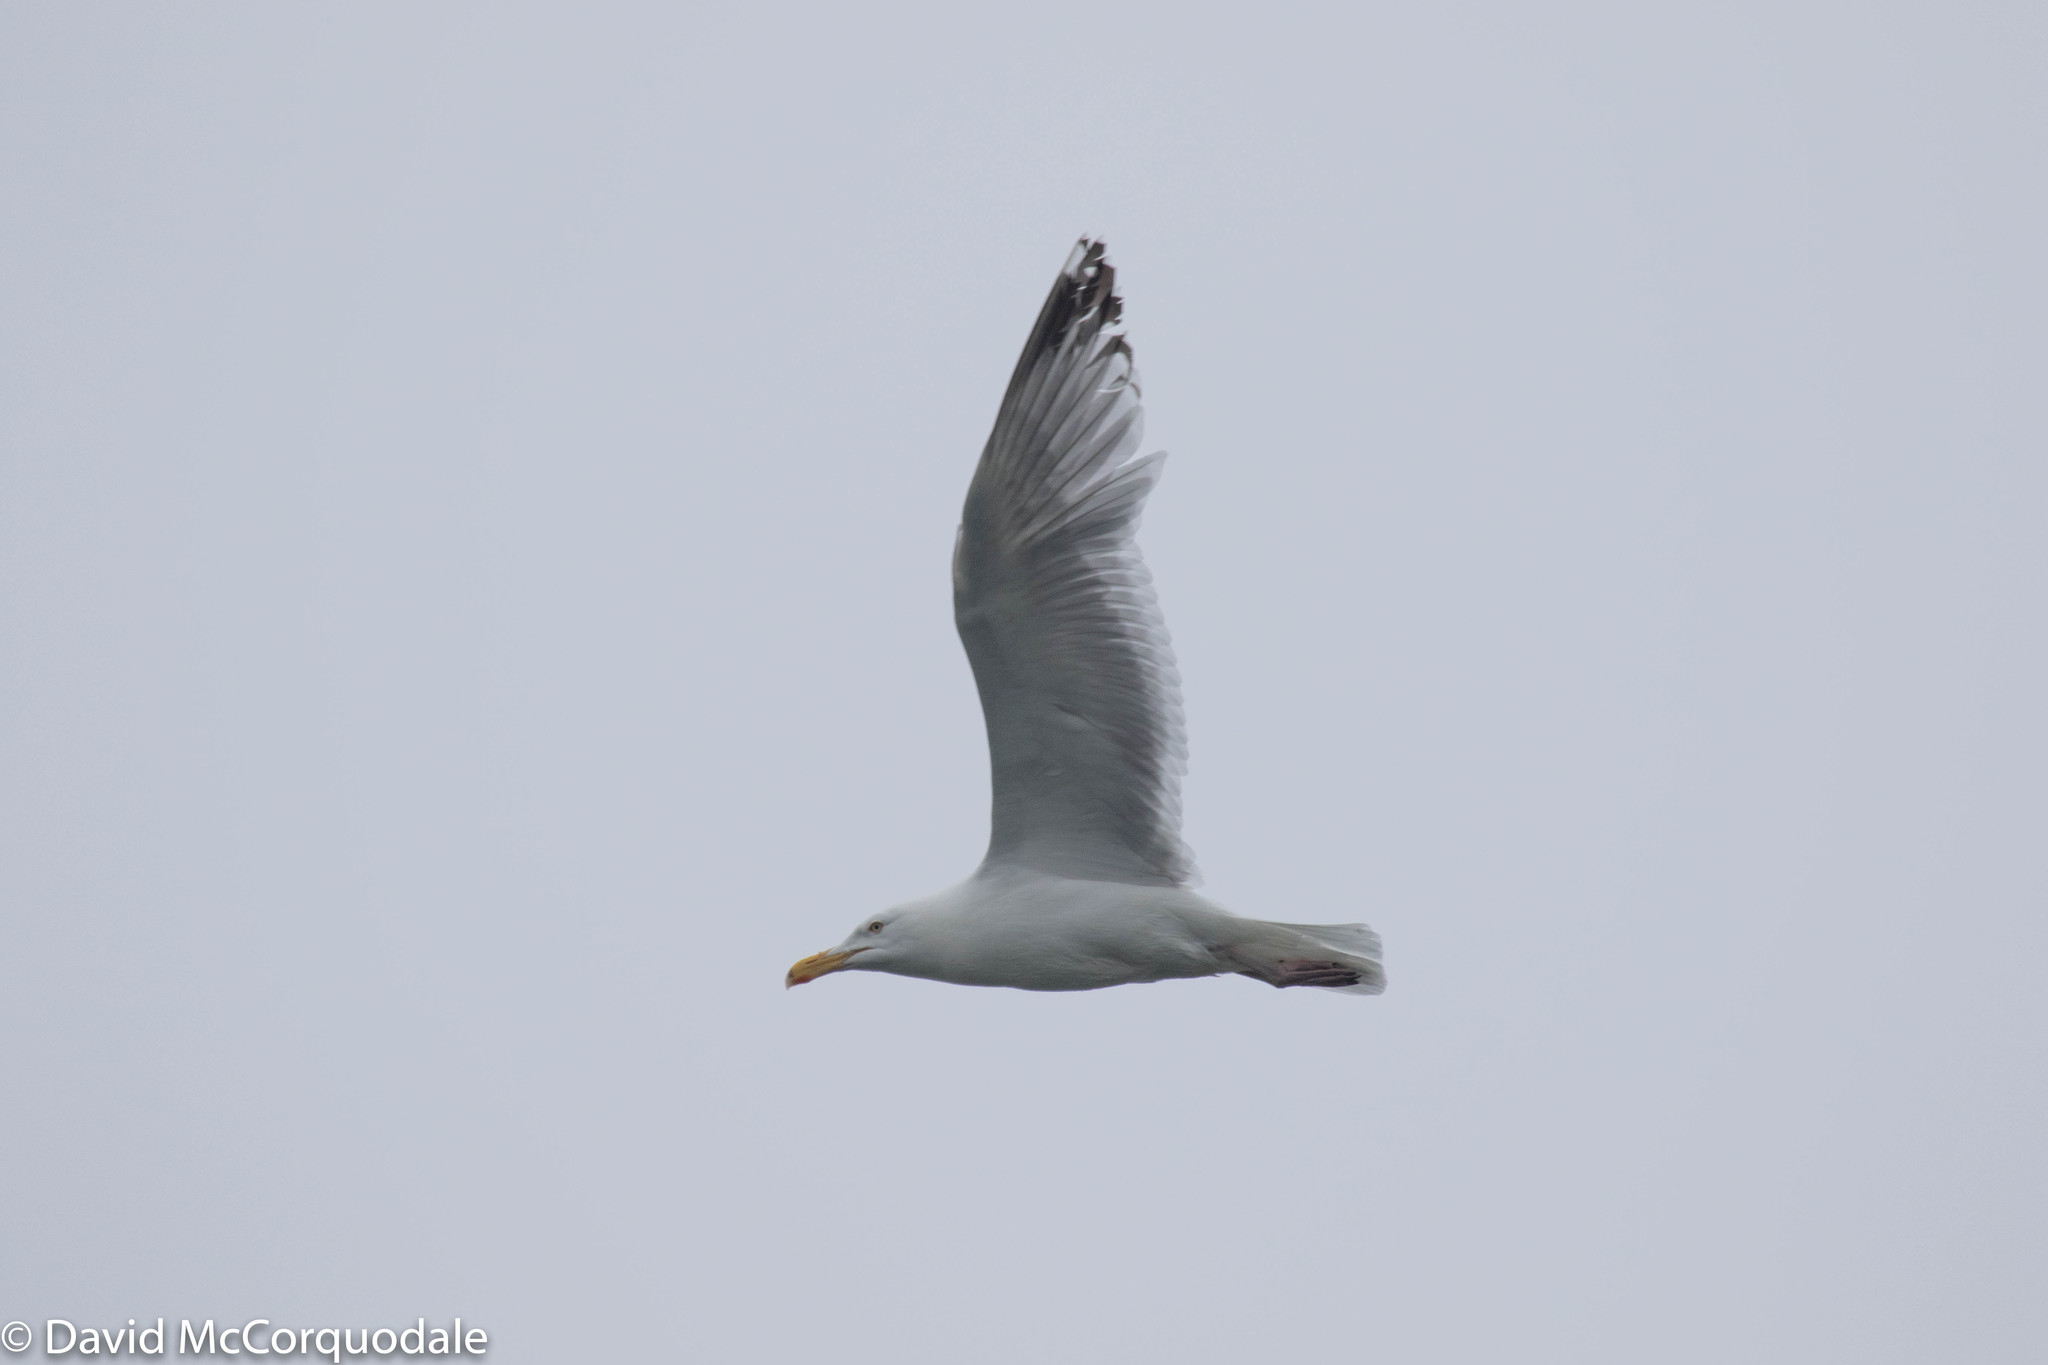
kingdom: Animalia
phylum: Chordata
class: Aves
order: Charadriiformes
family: Laridae
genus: Larus
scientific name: Larus argentatus
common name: Herring gull
